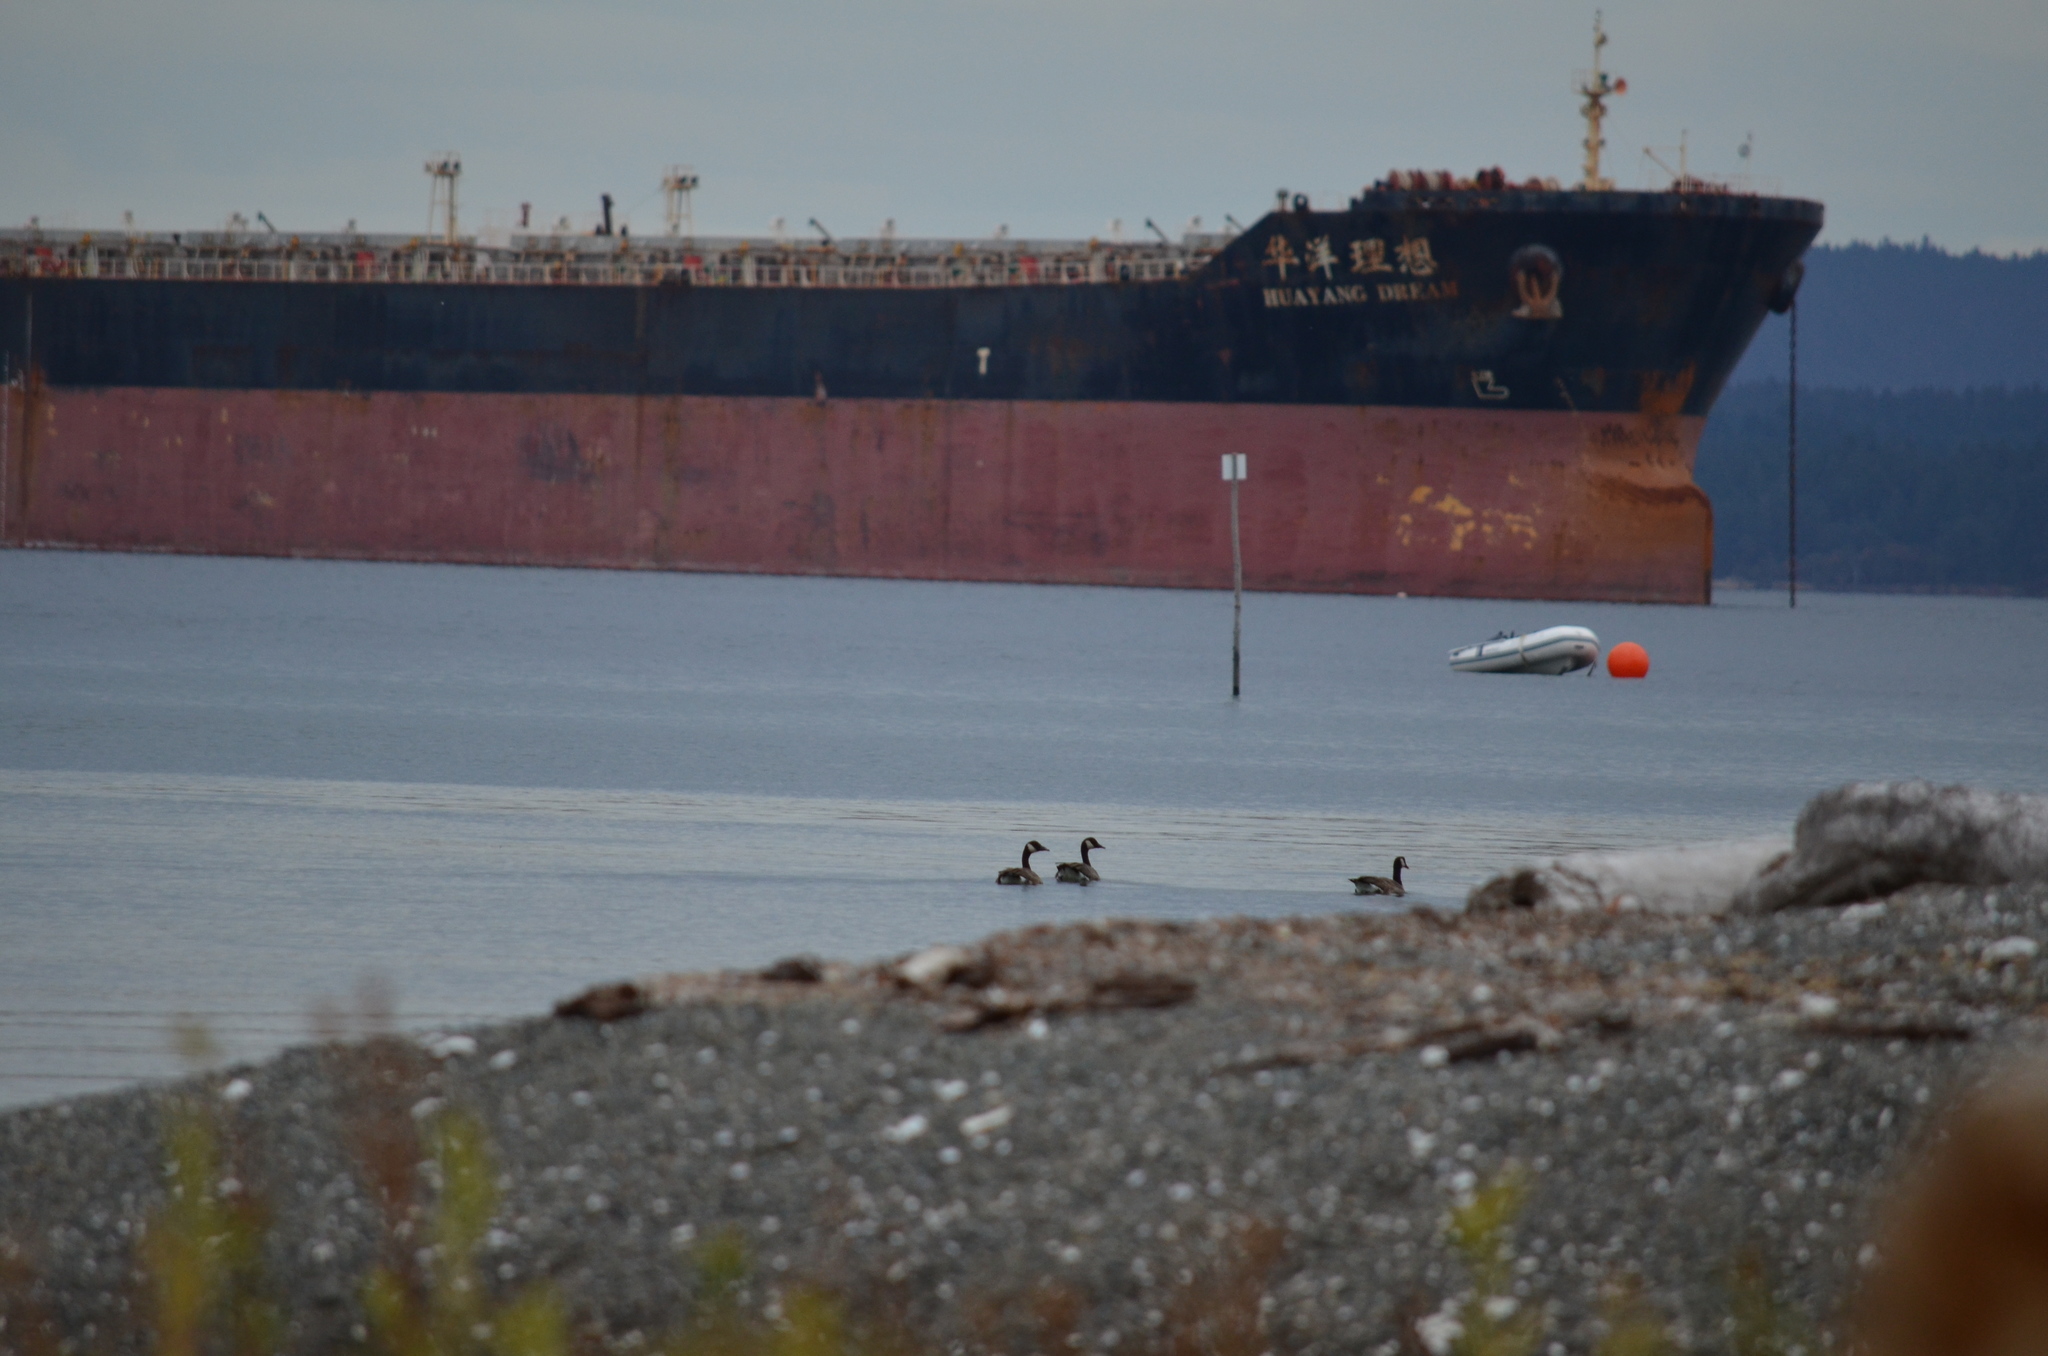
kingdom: Animalia
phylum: Chordata
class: Aves
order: Anseriformes
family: Anatidae
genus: Branta
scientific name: Branta canadensis
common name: Canada goose
